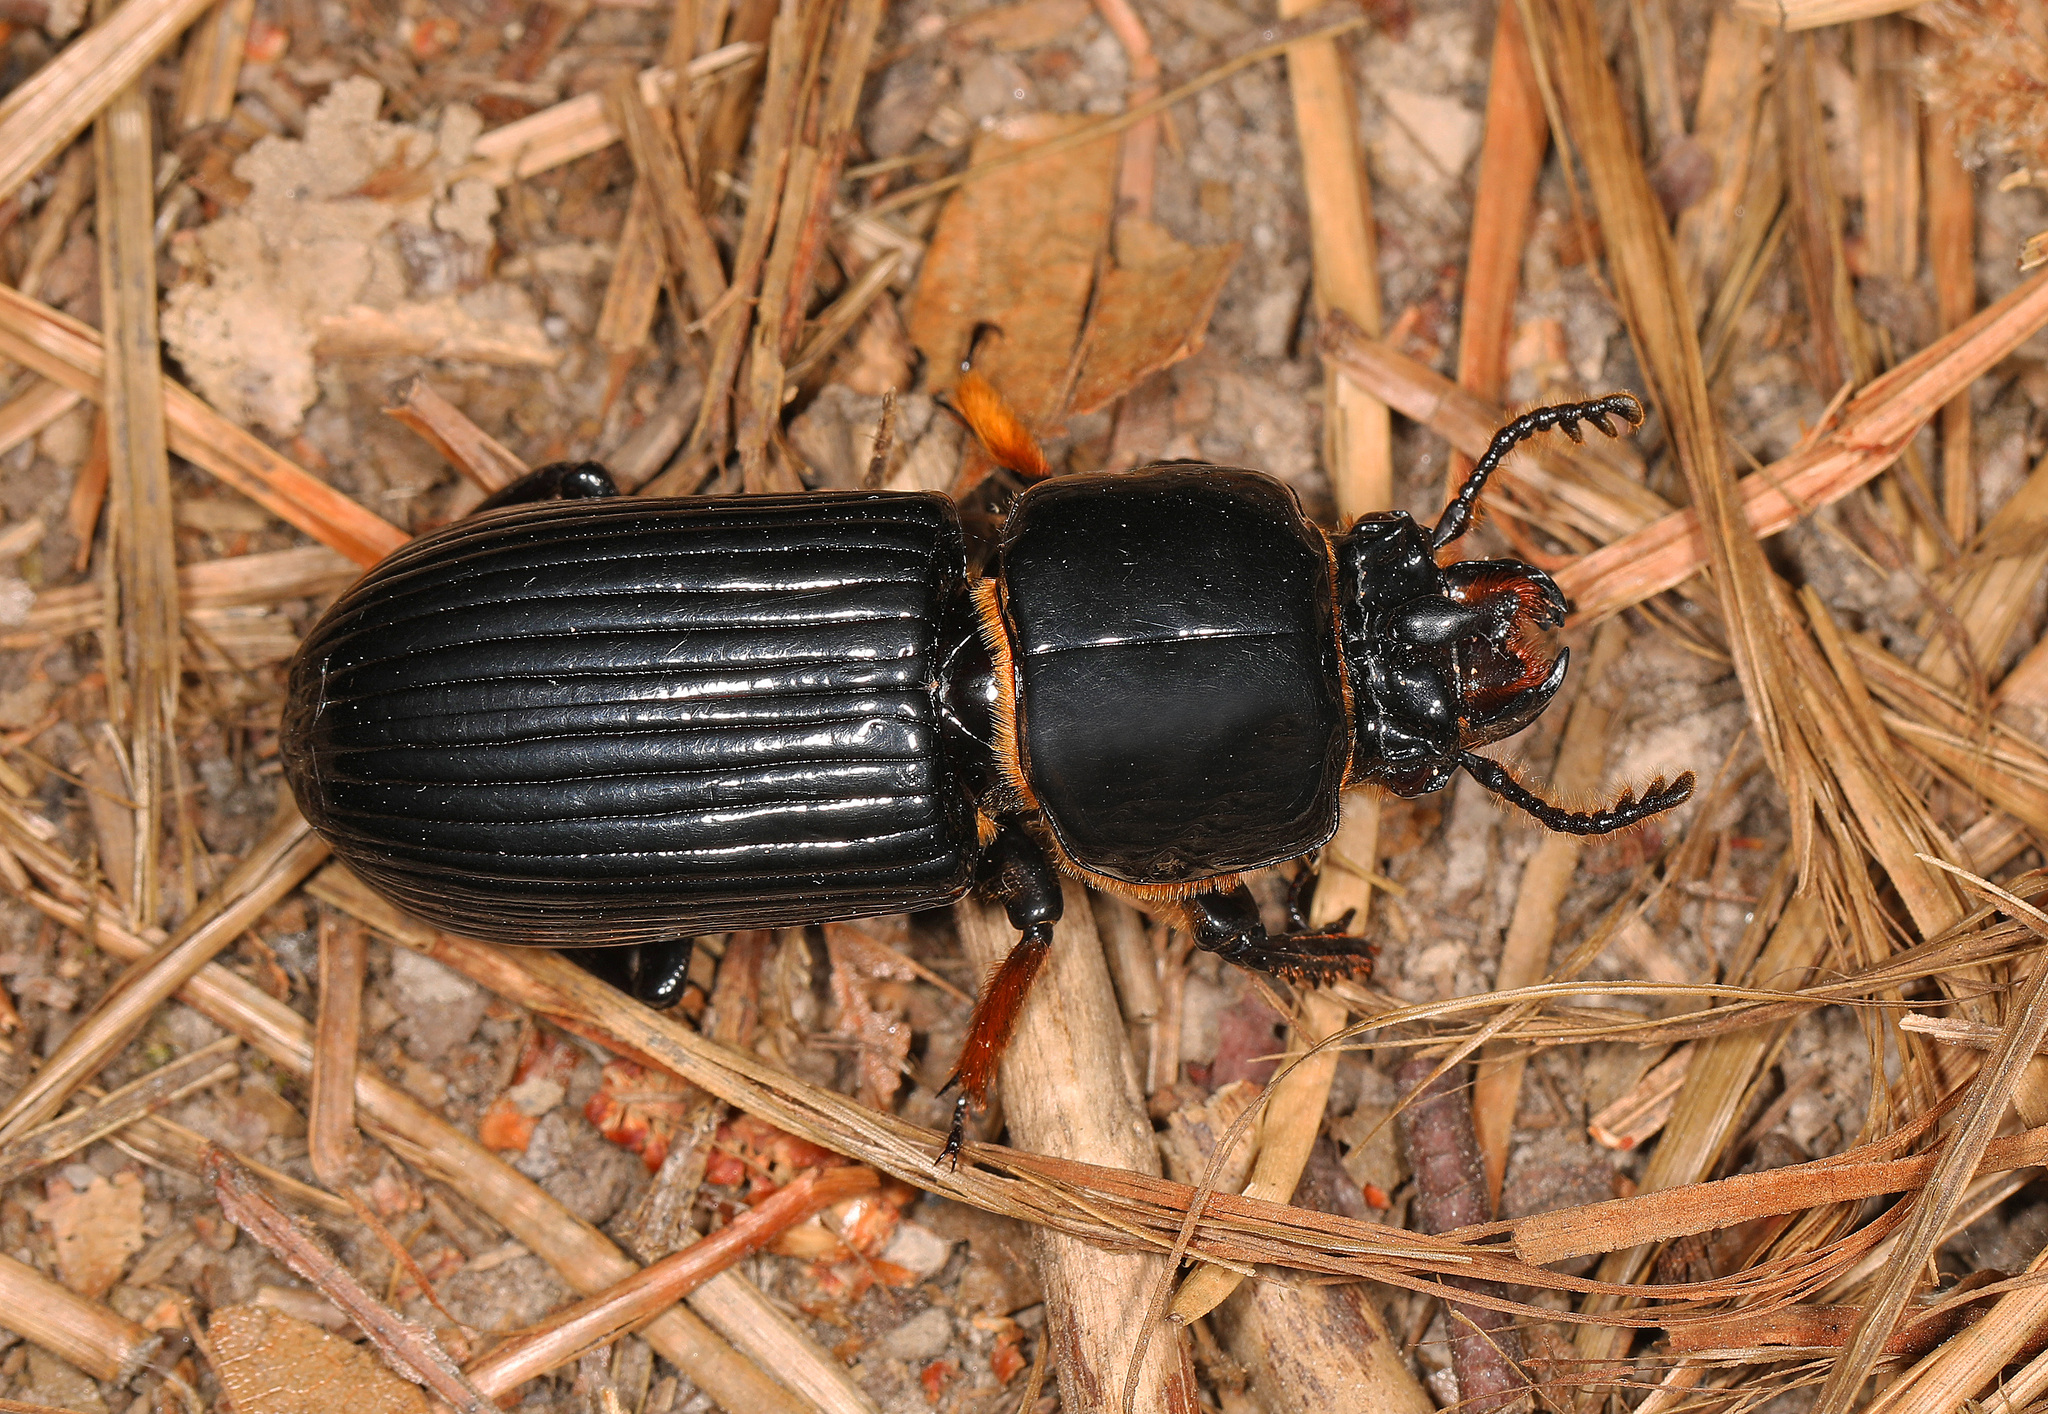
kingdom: Animalia
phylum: Arthropoda
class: Insecta
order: Coleoptera
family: Passalidae
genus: Odontotaenius
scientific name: Odontotaenius disjunctus
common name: Patent leather beetle
